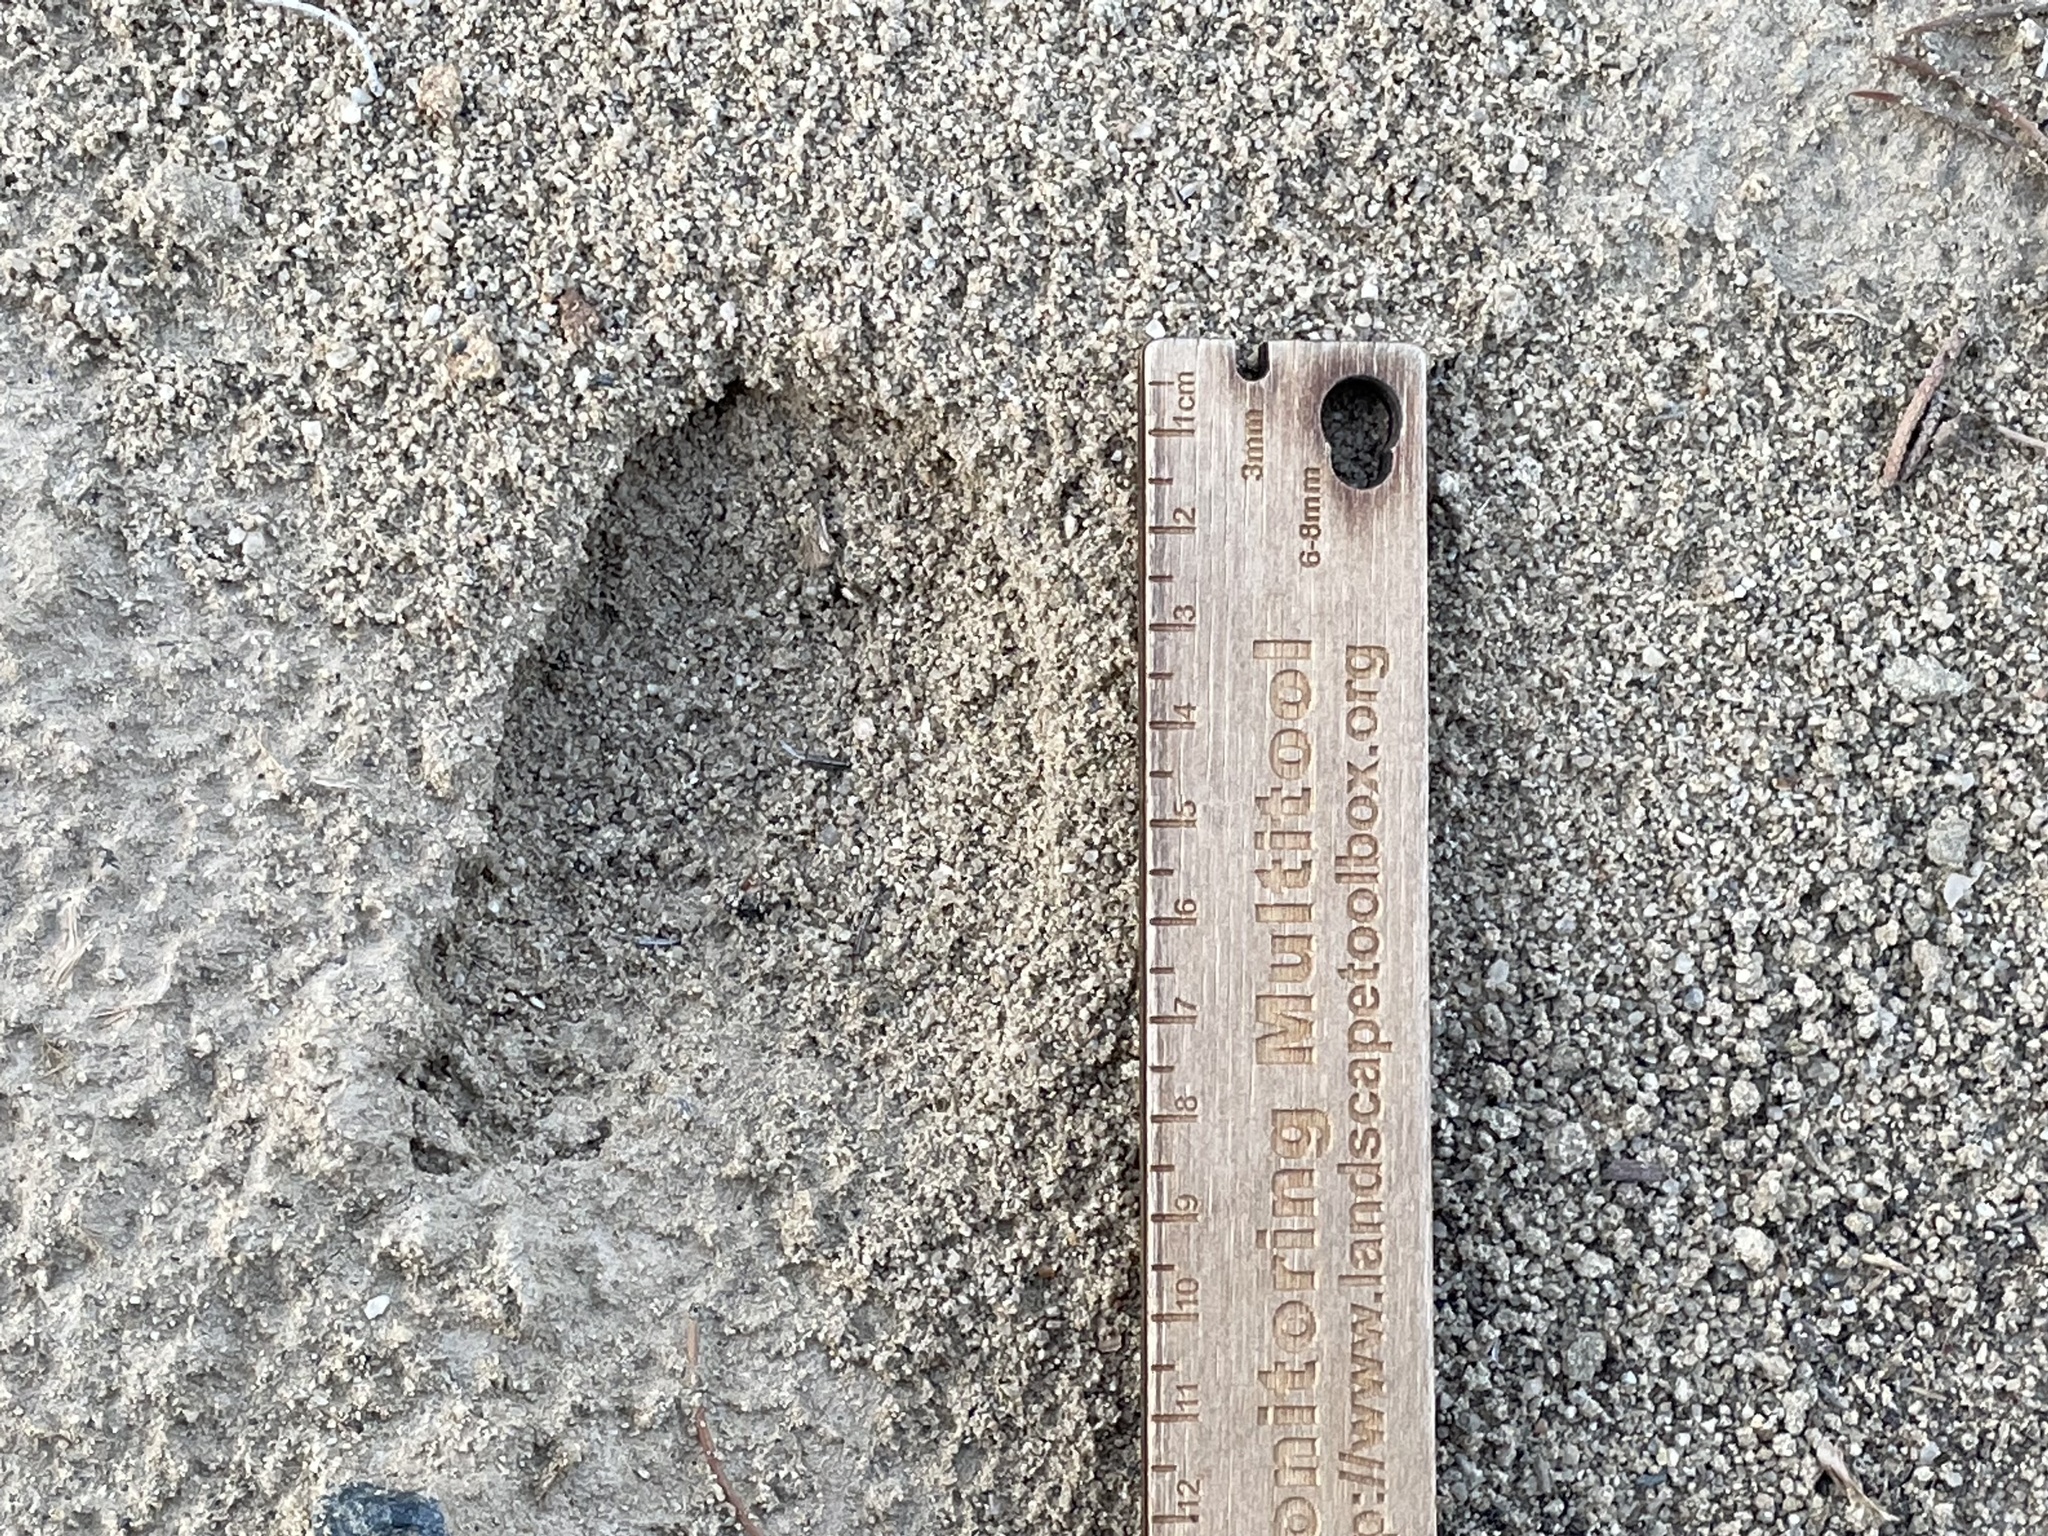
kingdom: Animalia
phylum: Chordata
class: Mammalia
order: Artiodactyla
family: Cervidae
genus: Odocoileus
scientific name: Odocoileus hemionus
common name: Mule deer
